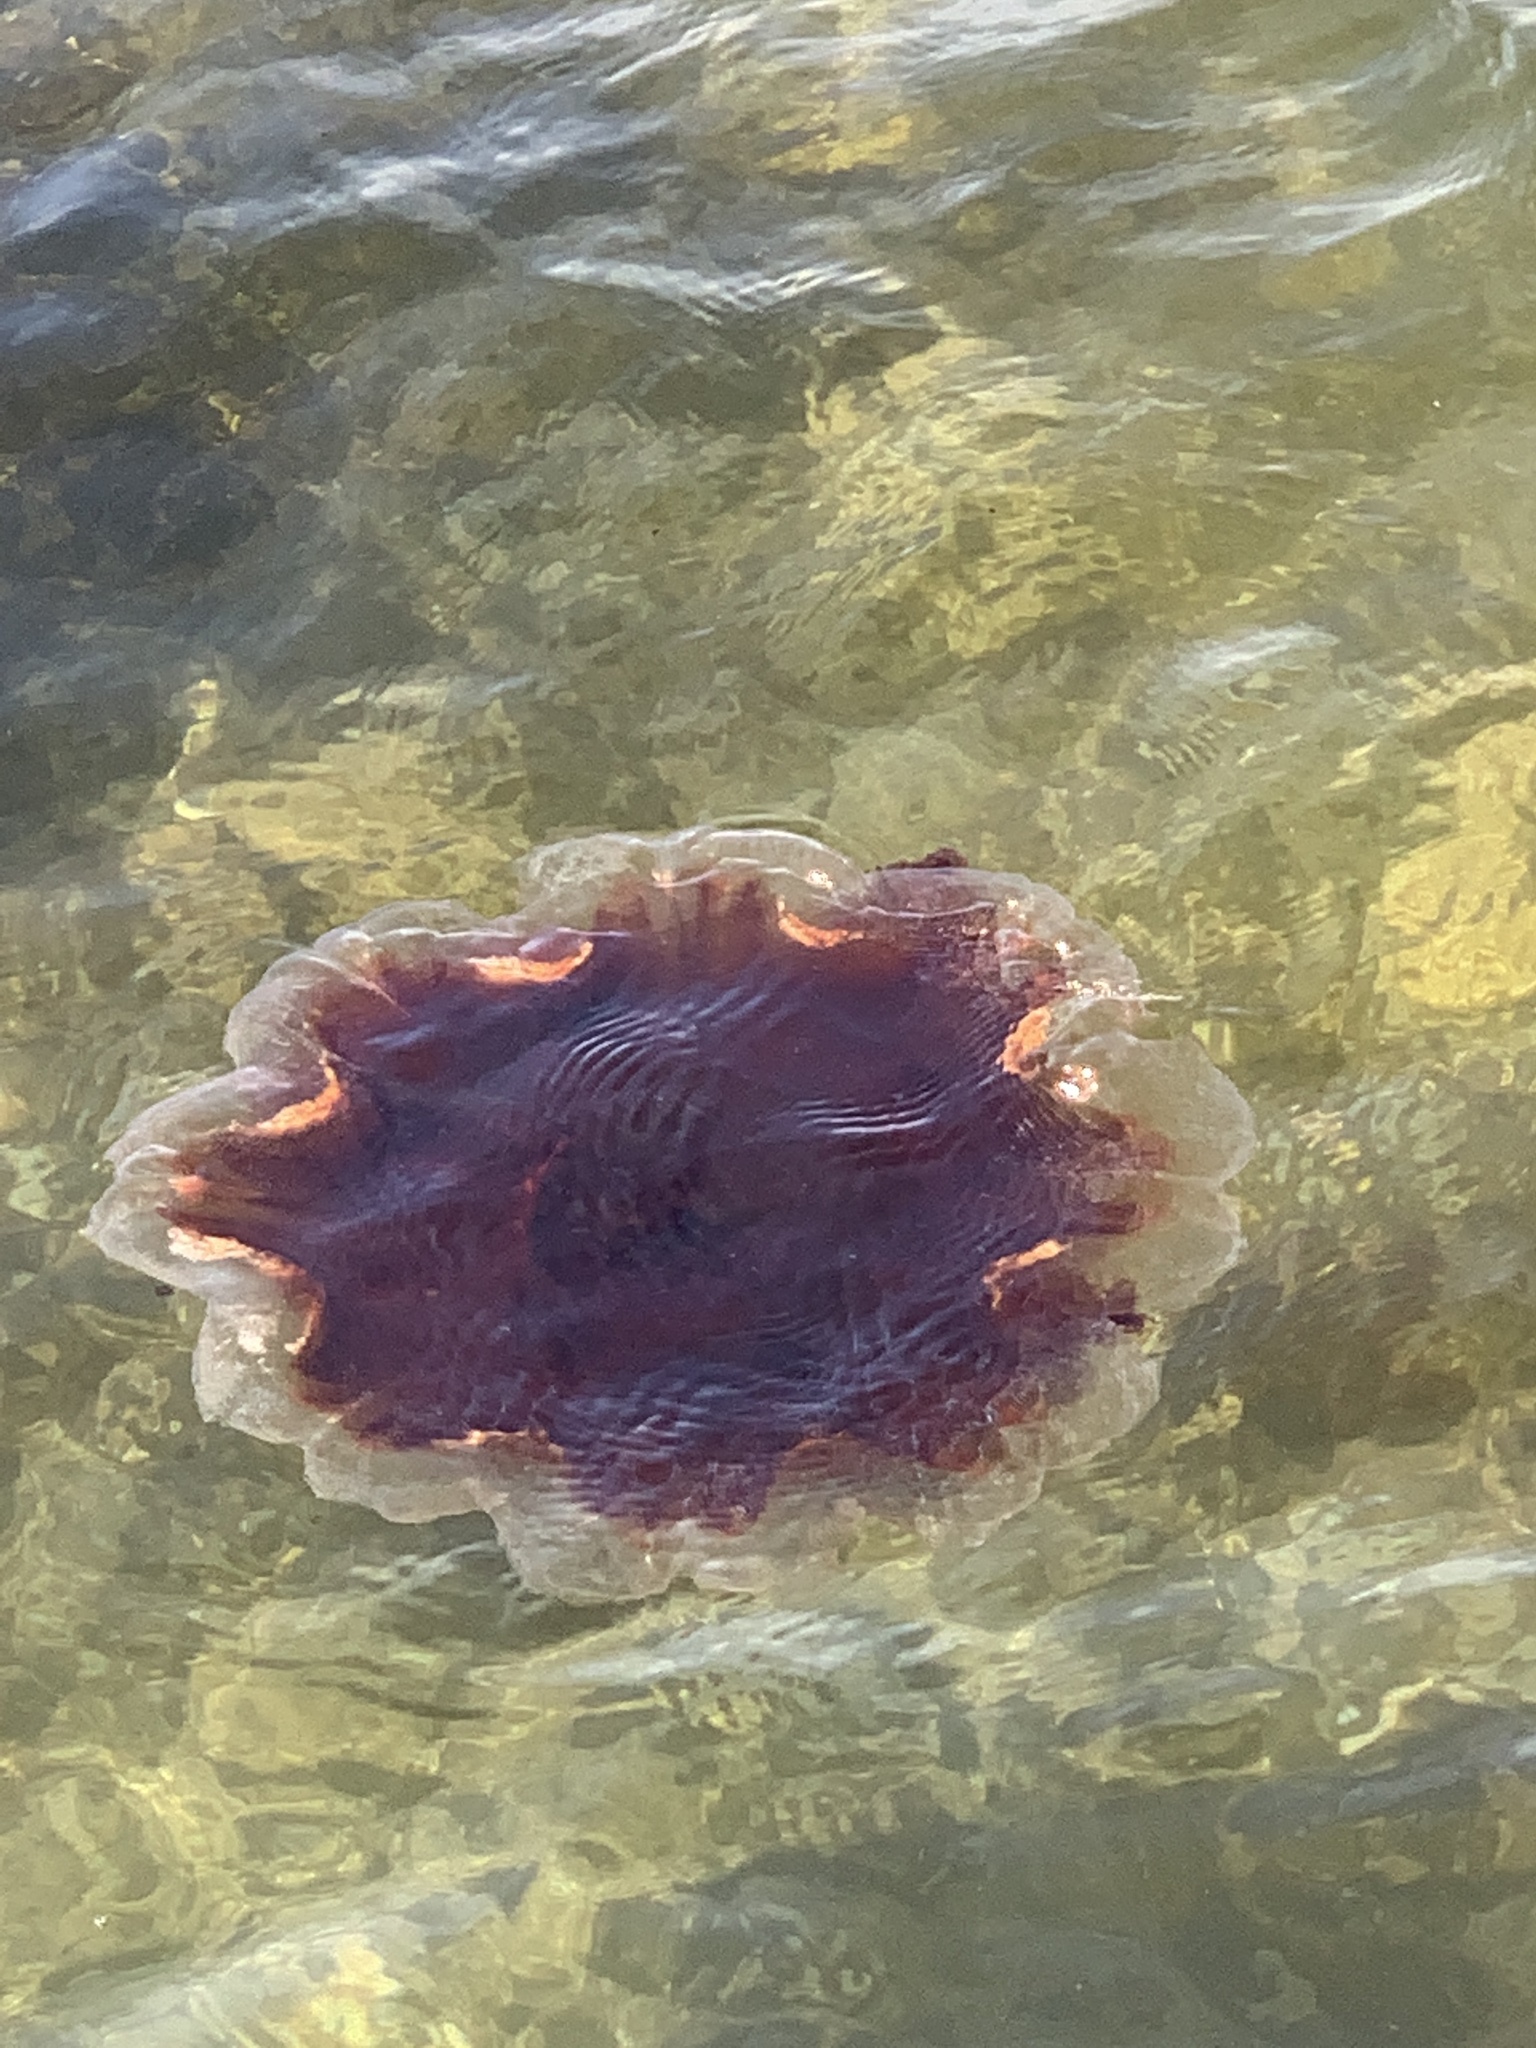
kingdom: Animalia
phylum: Cnidaria
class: Scyphozoa
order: Semaeostomeae
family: Cyaneidae
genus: Cyanea
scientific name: Cyanea ferruginea
